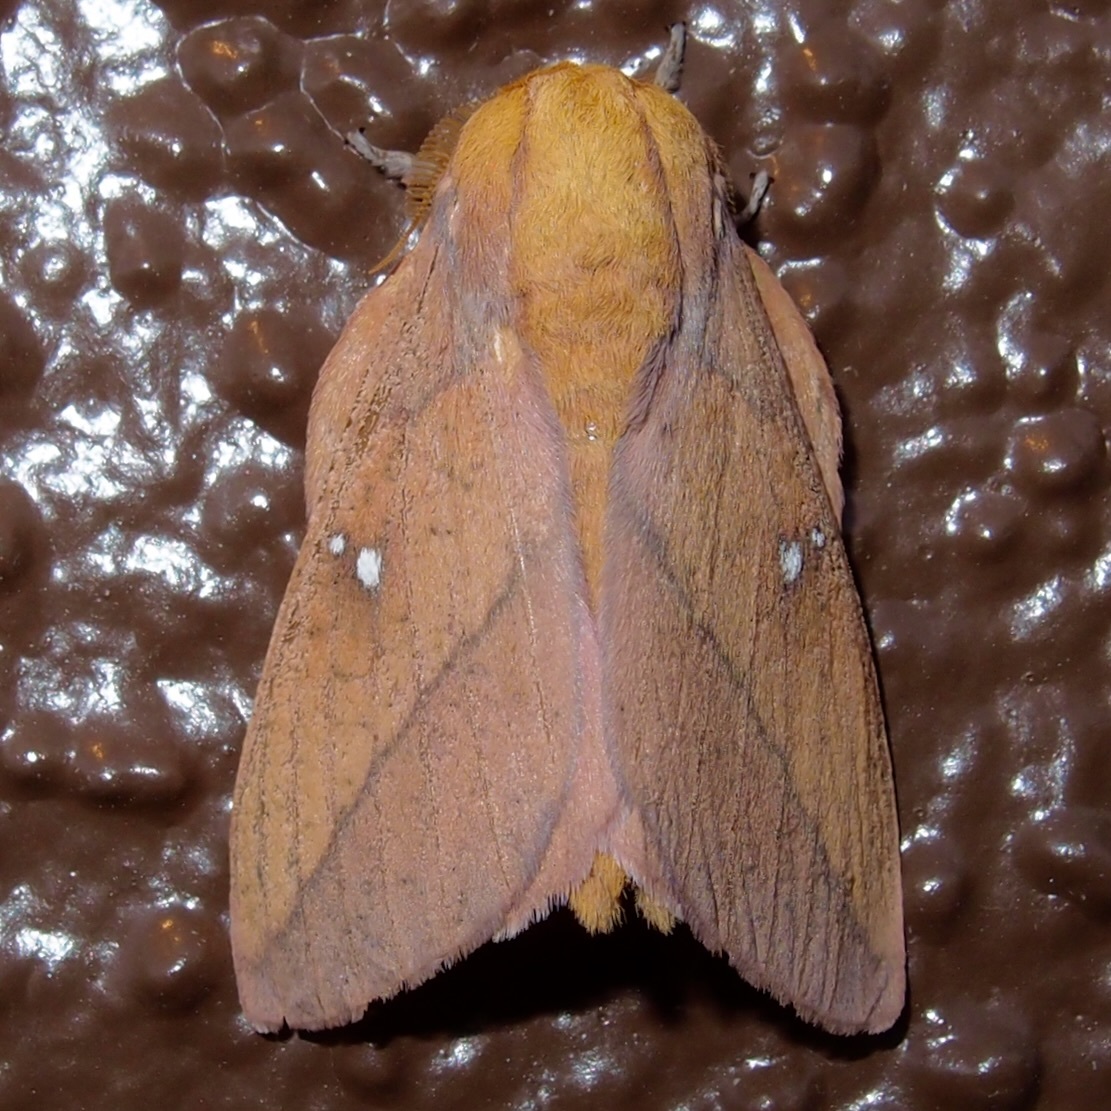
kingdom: Animalia
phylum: Arthropoda
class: Insecta
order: Lepidoptera
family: Saturniidae
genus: Syssphinx
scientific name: Syssphinx montana
